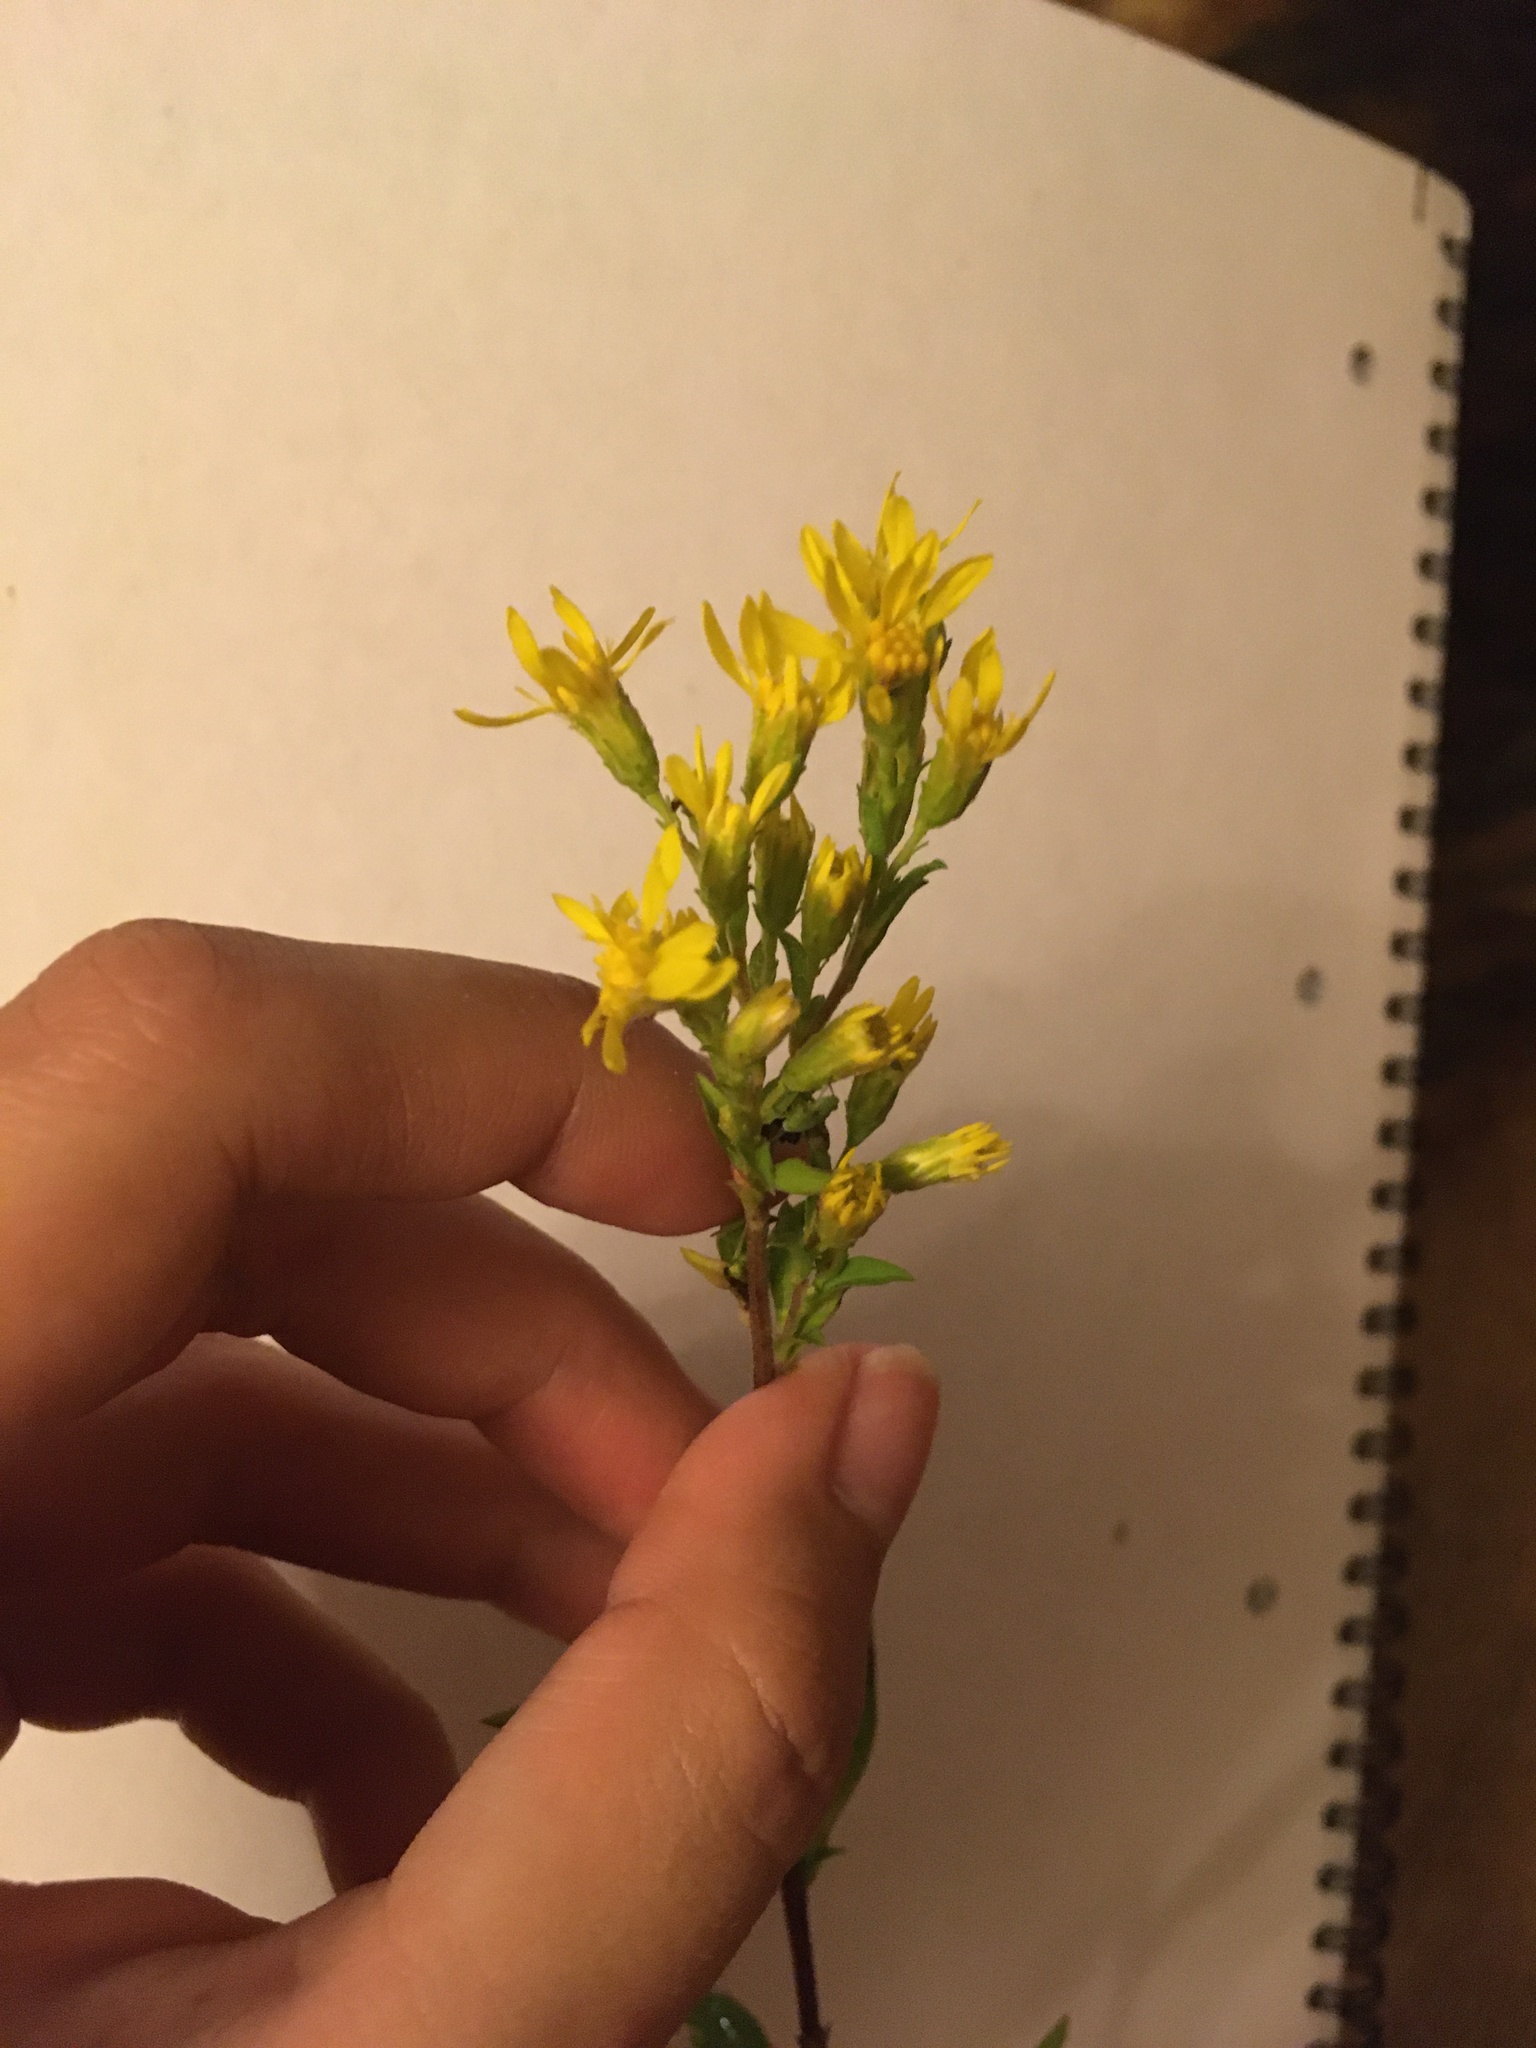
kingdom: Plantae
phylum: Tracheophyta
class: Magnoliopsida
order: Asterales
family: Asteraceae
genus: Solidago
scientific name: Solidago virgaurea
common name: Goldenrod
